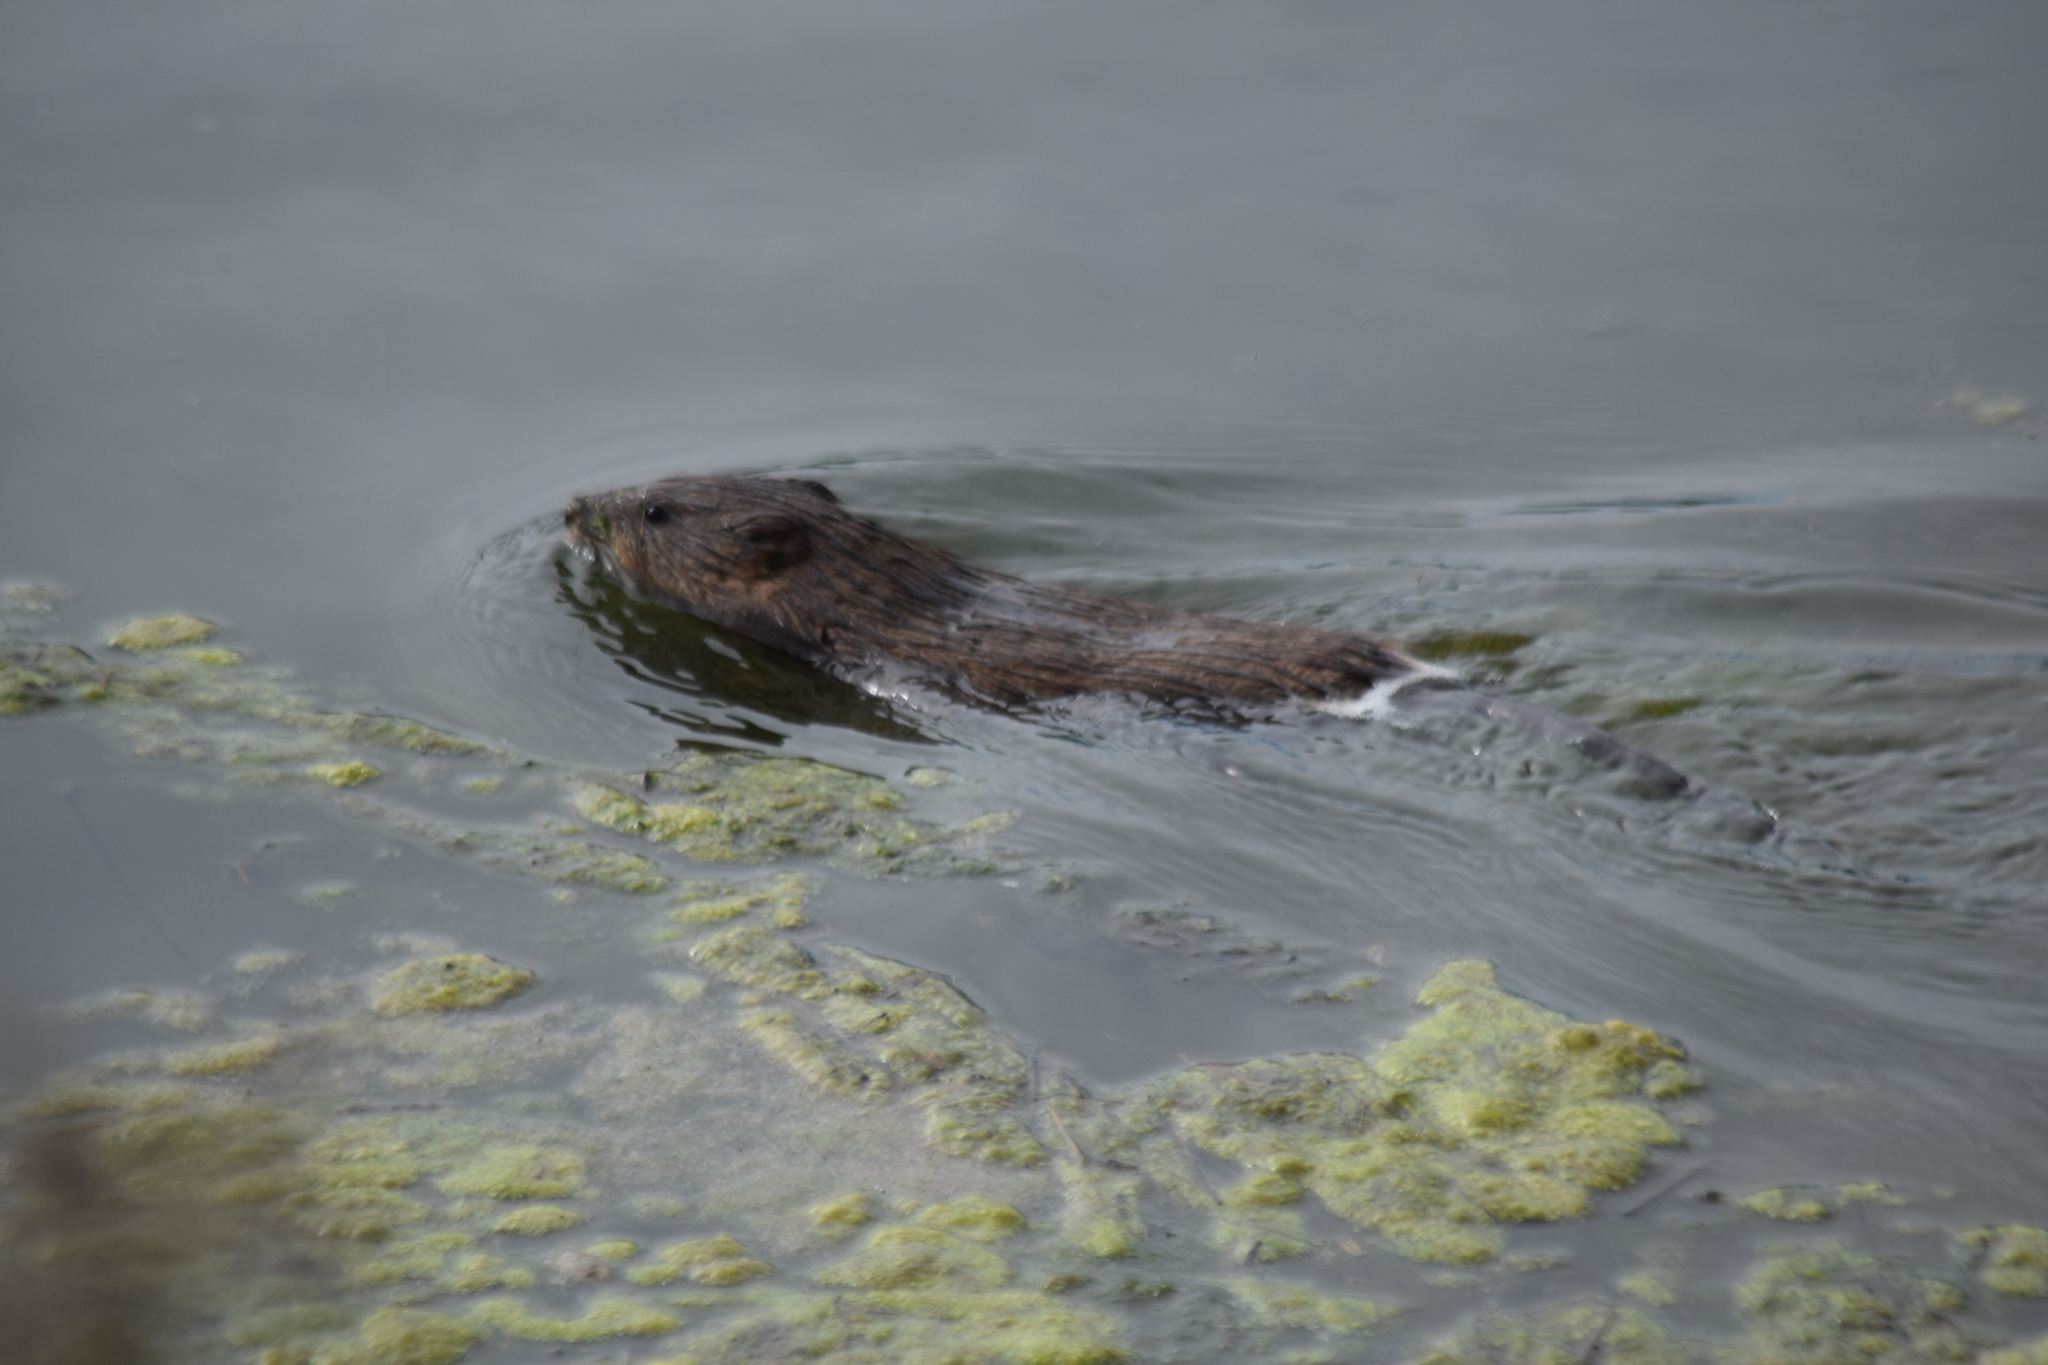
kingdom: Animalia
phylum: Chordata
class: Mammalia
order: Rodentia
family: Cricetidae
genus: Ondatra
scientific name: Ondatra zibethicus
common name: Muskrat
